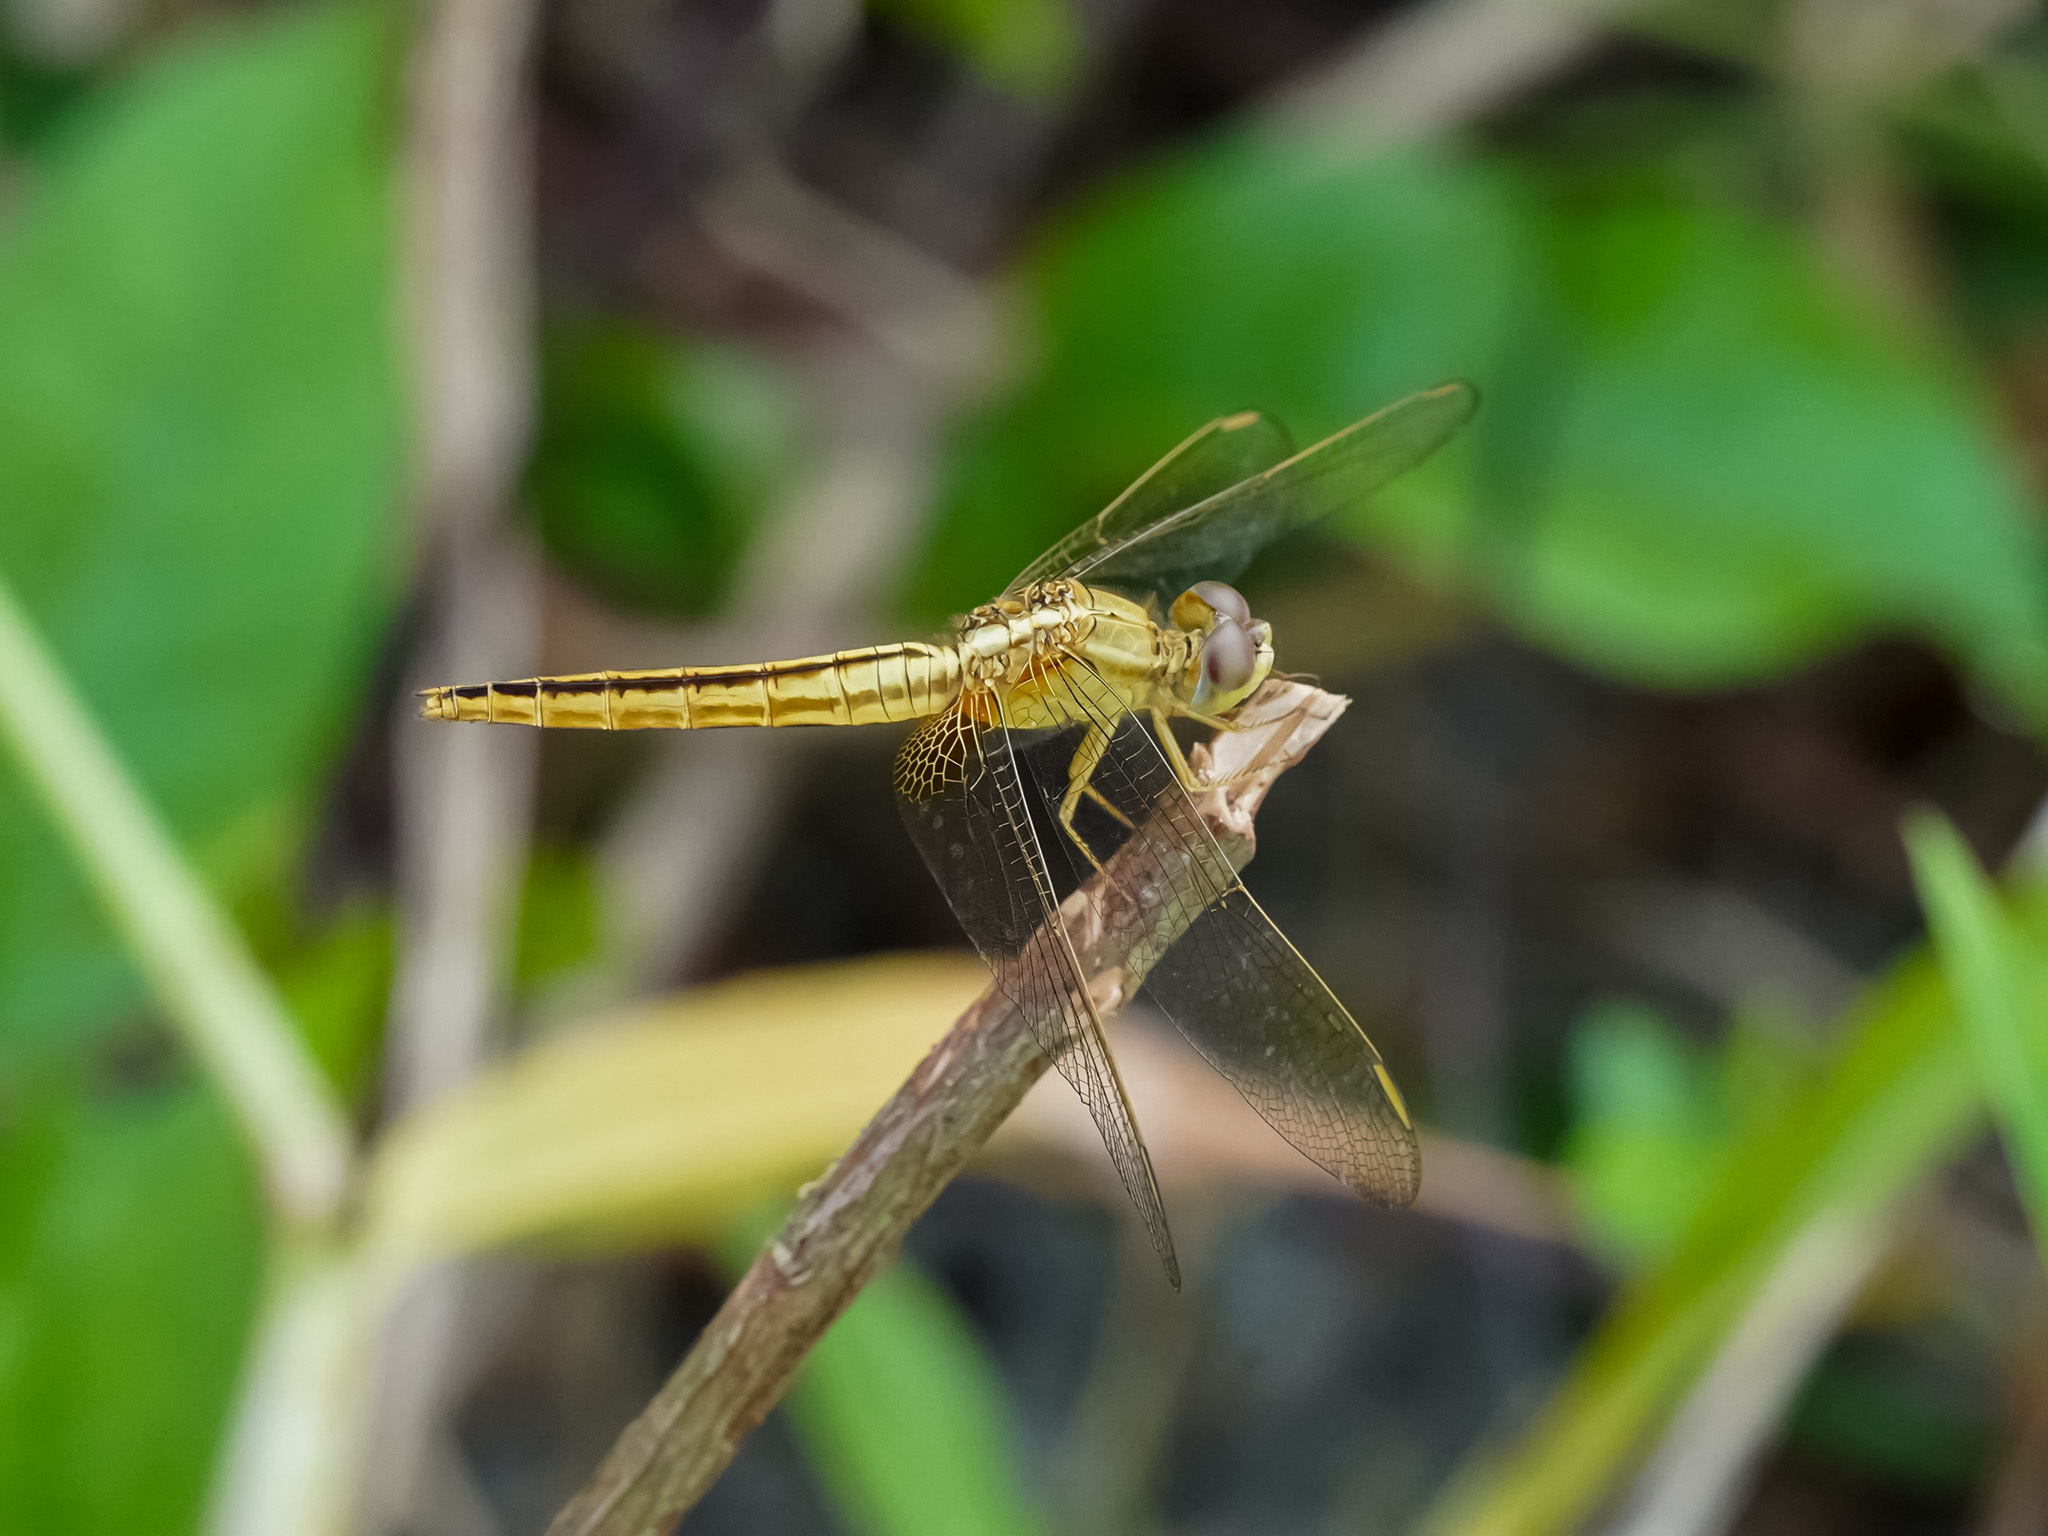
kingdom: Animalia
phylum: Arthropoda
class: Insecta
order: Odonata
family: Libellulidae
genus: Crocothemis
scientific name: Crocothemis servilia
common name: Scarlet skimmer
